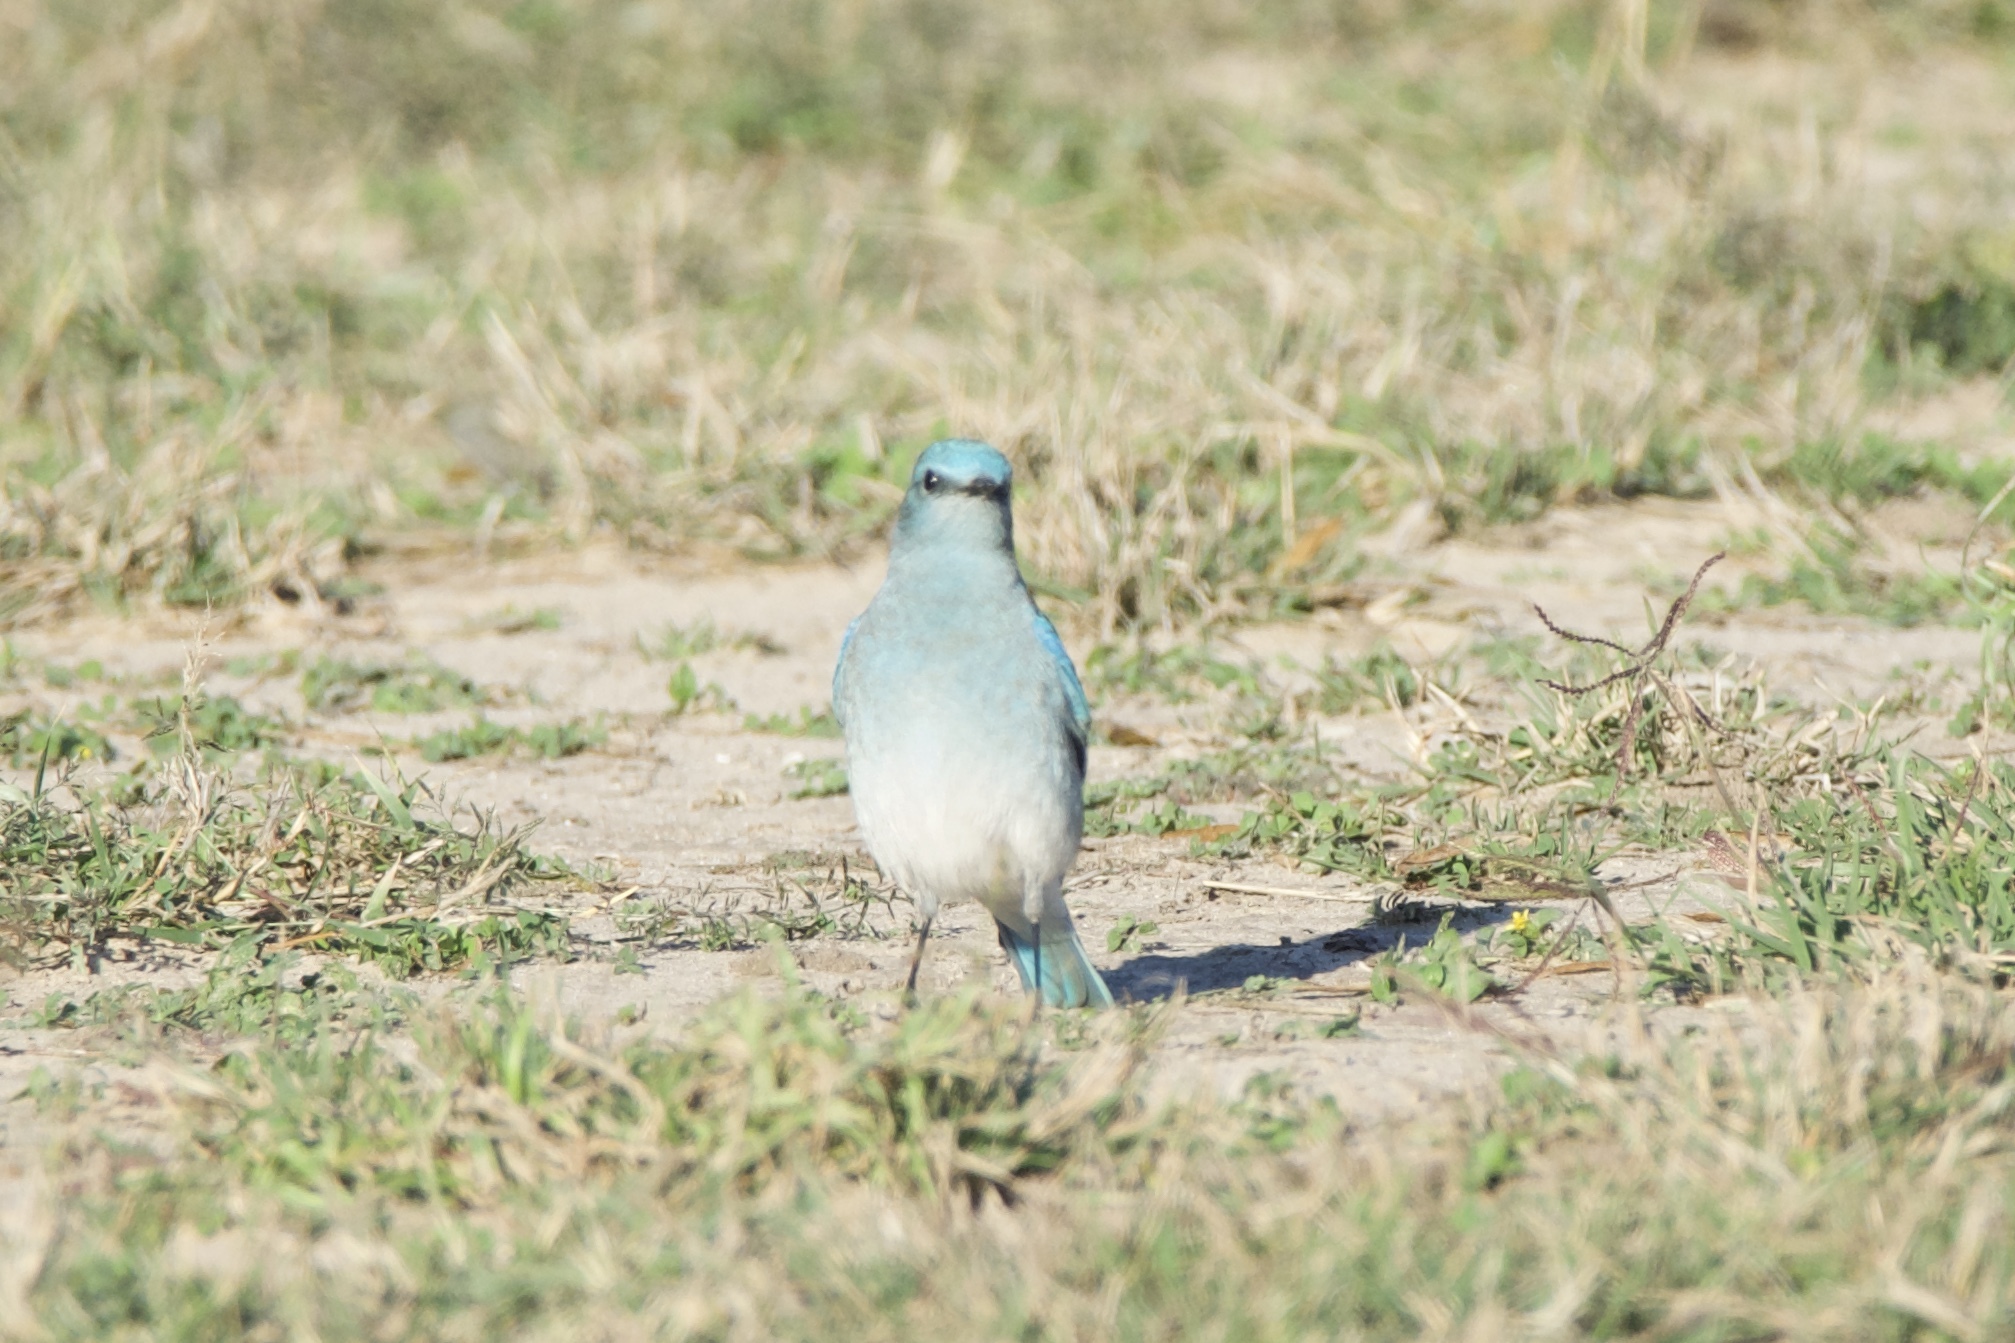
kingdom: Animalia
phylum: Chordata
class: Aves
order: Passeriformes
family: Turdidae
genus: Sialia
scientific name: Sialia currucoides
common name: Mountain bluebird
